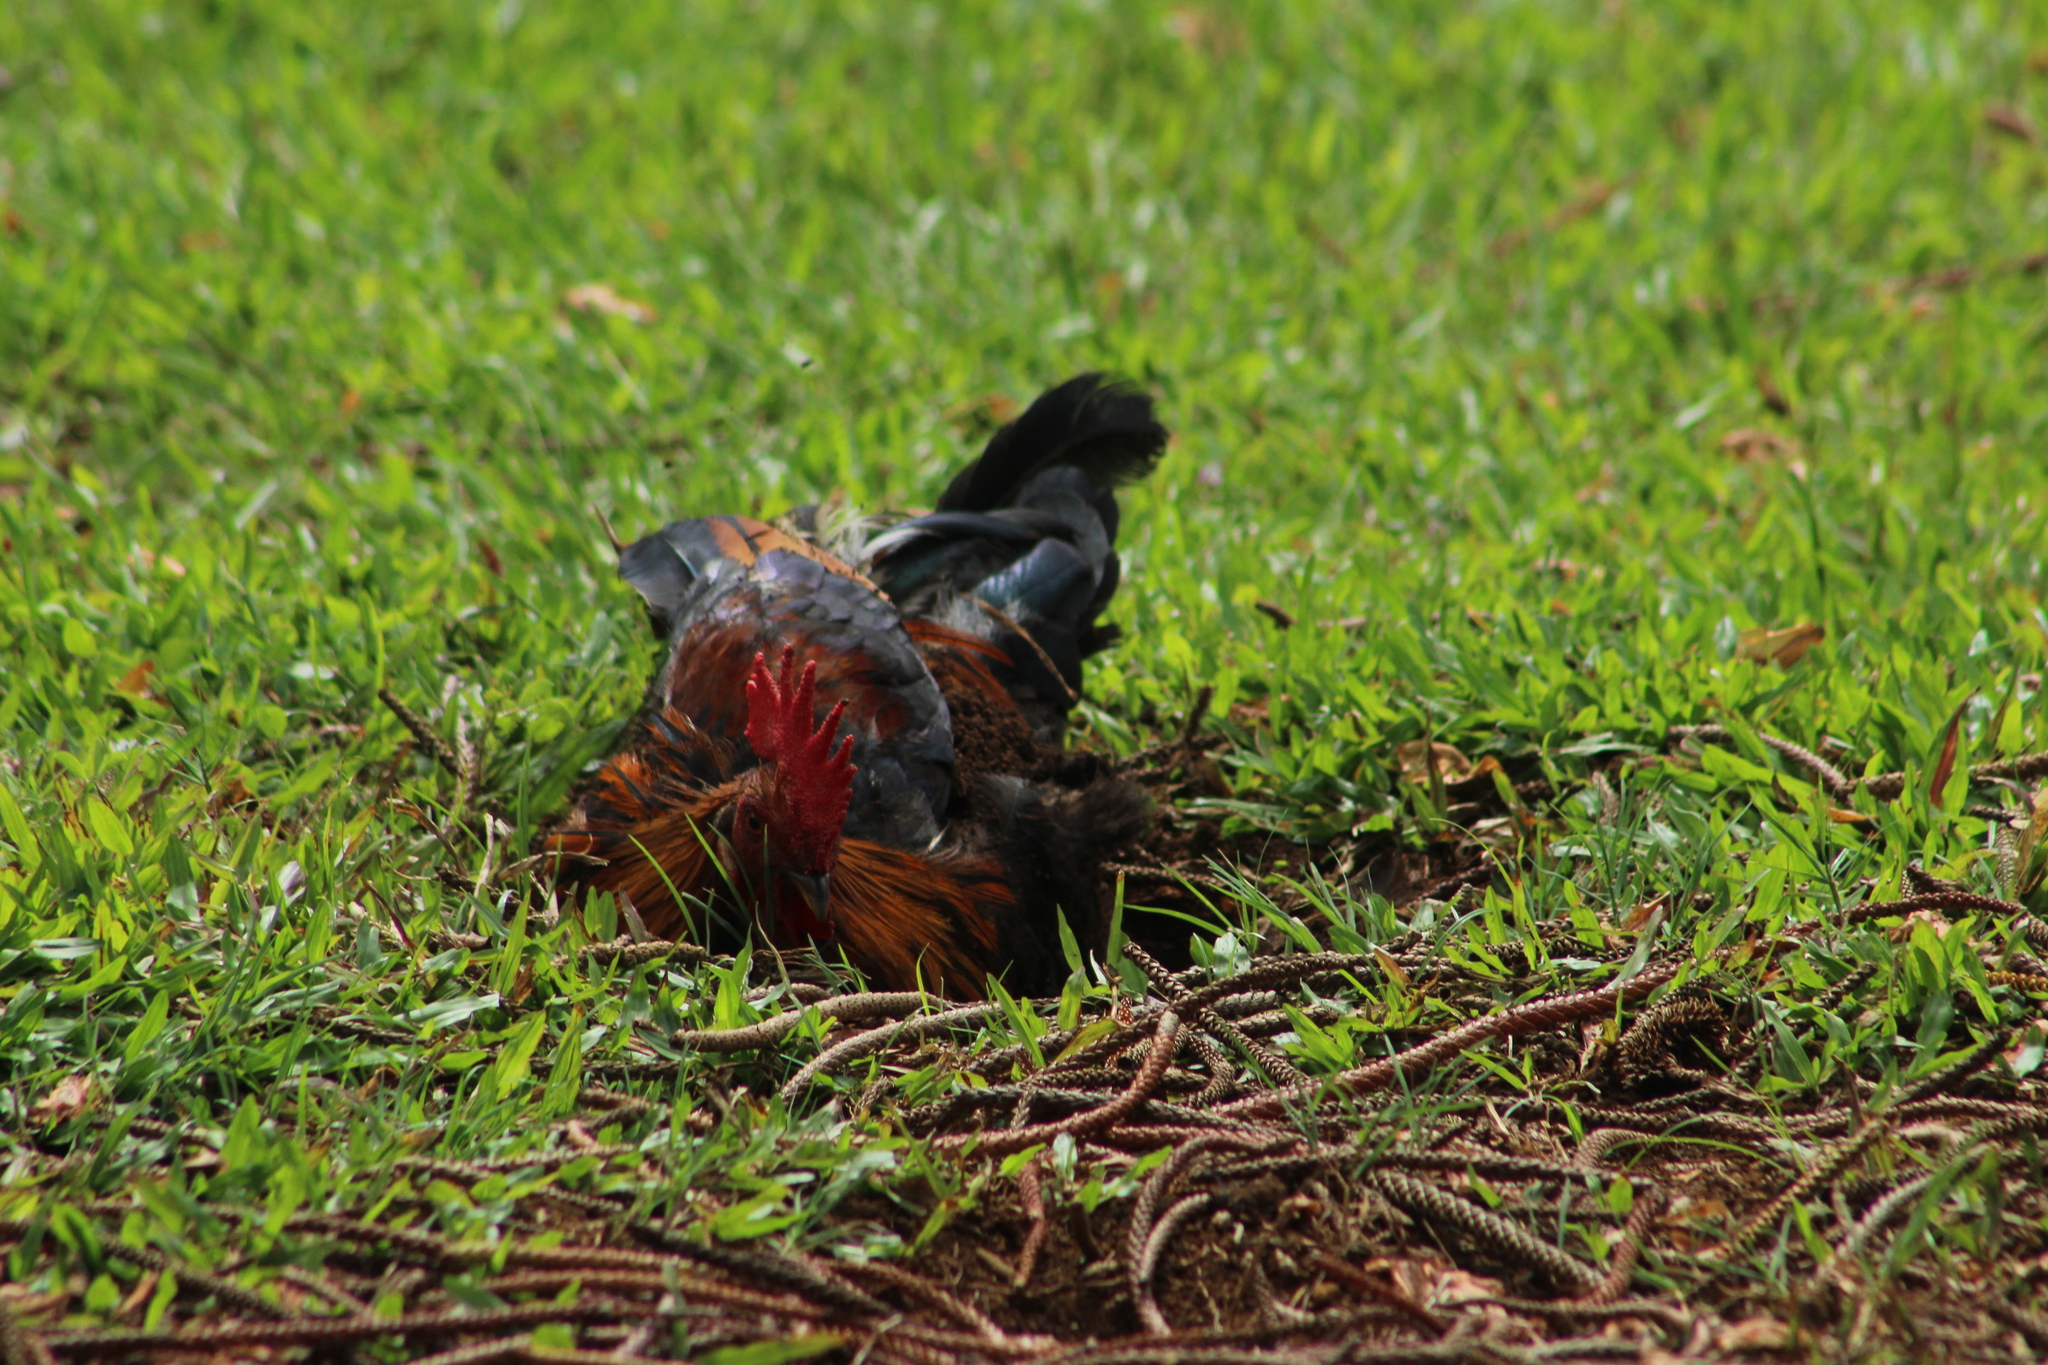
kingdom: Animalia
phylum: Chordata
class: Aves
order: Galliformes
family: Phasianidae
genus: Gallus
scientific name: Gallus gallus
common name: Red junglefowl
